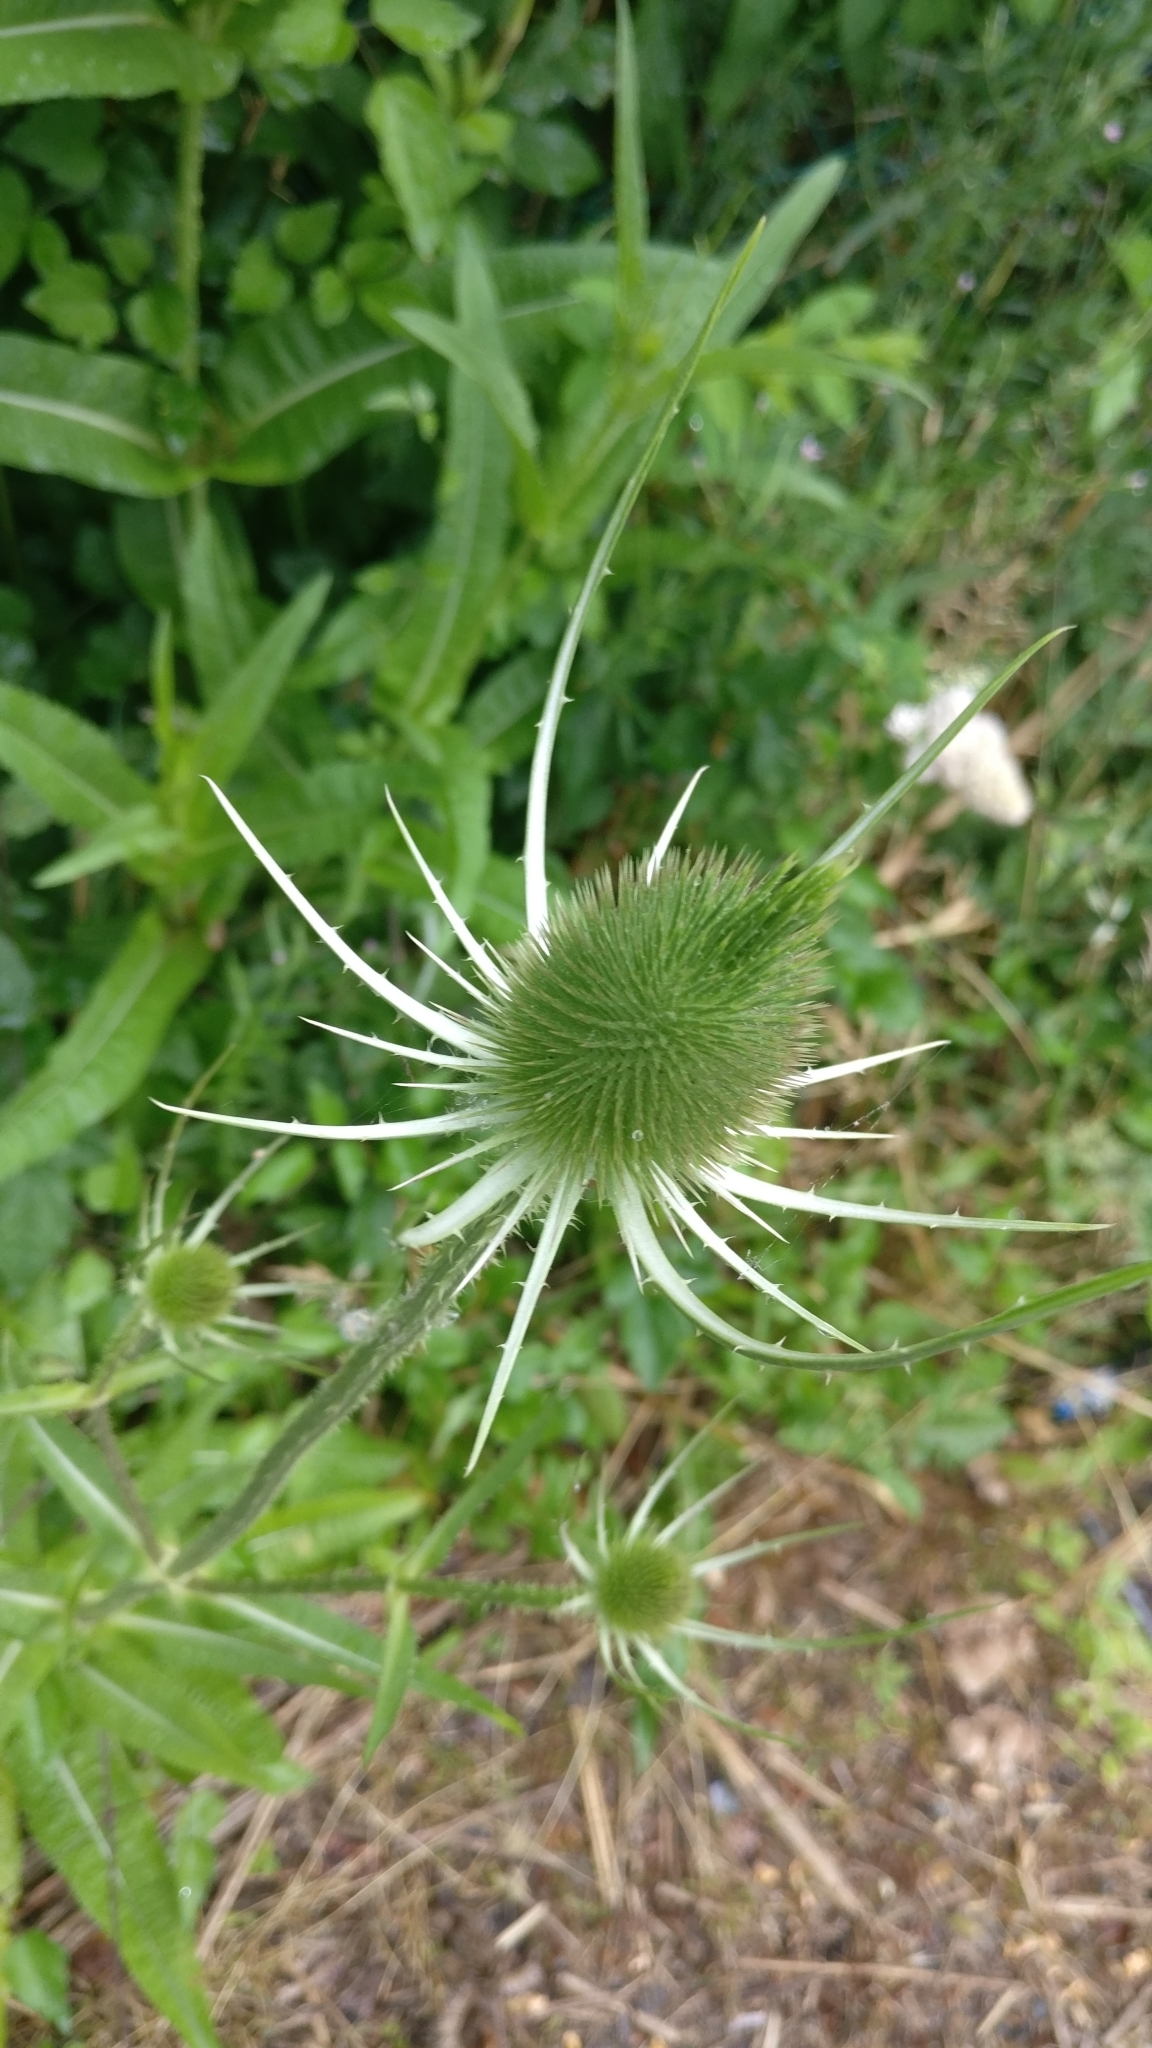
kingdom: Plantae
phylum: Tracheophyta
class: Magnoliopsida
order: Dipsacales
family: Caprifoliaceae
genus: Dipsacus
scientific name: Dipsacus fullonum
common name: Teasel
